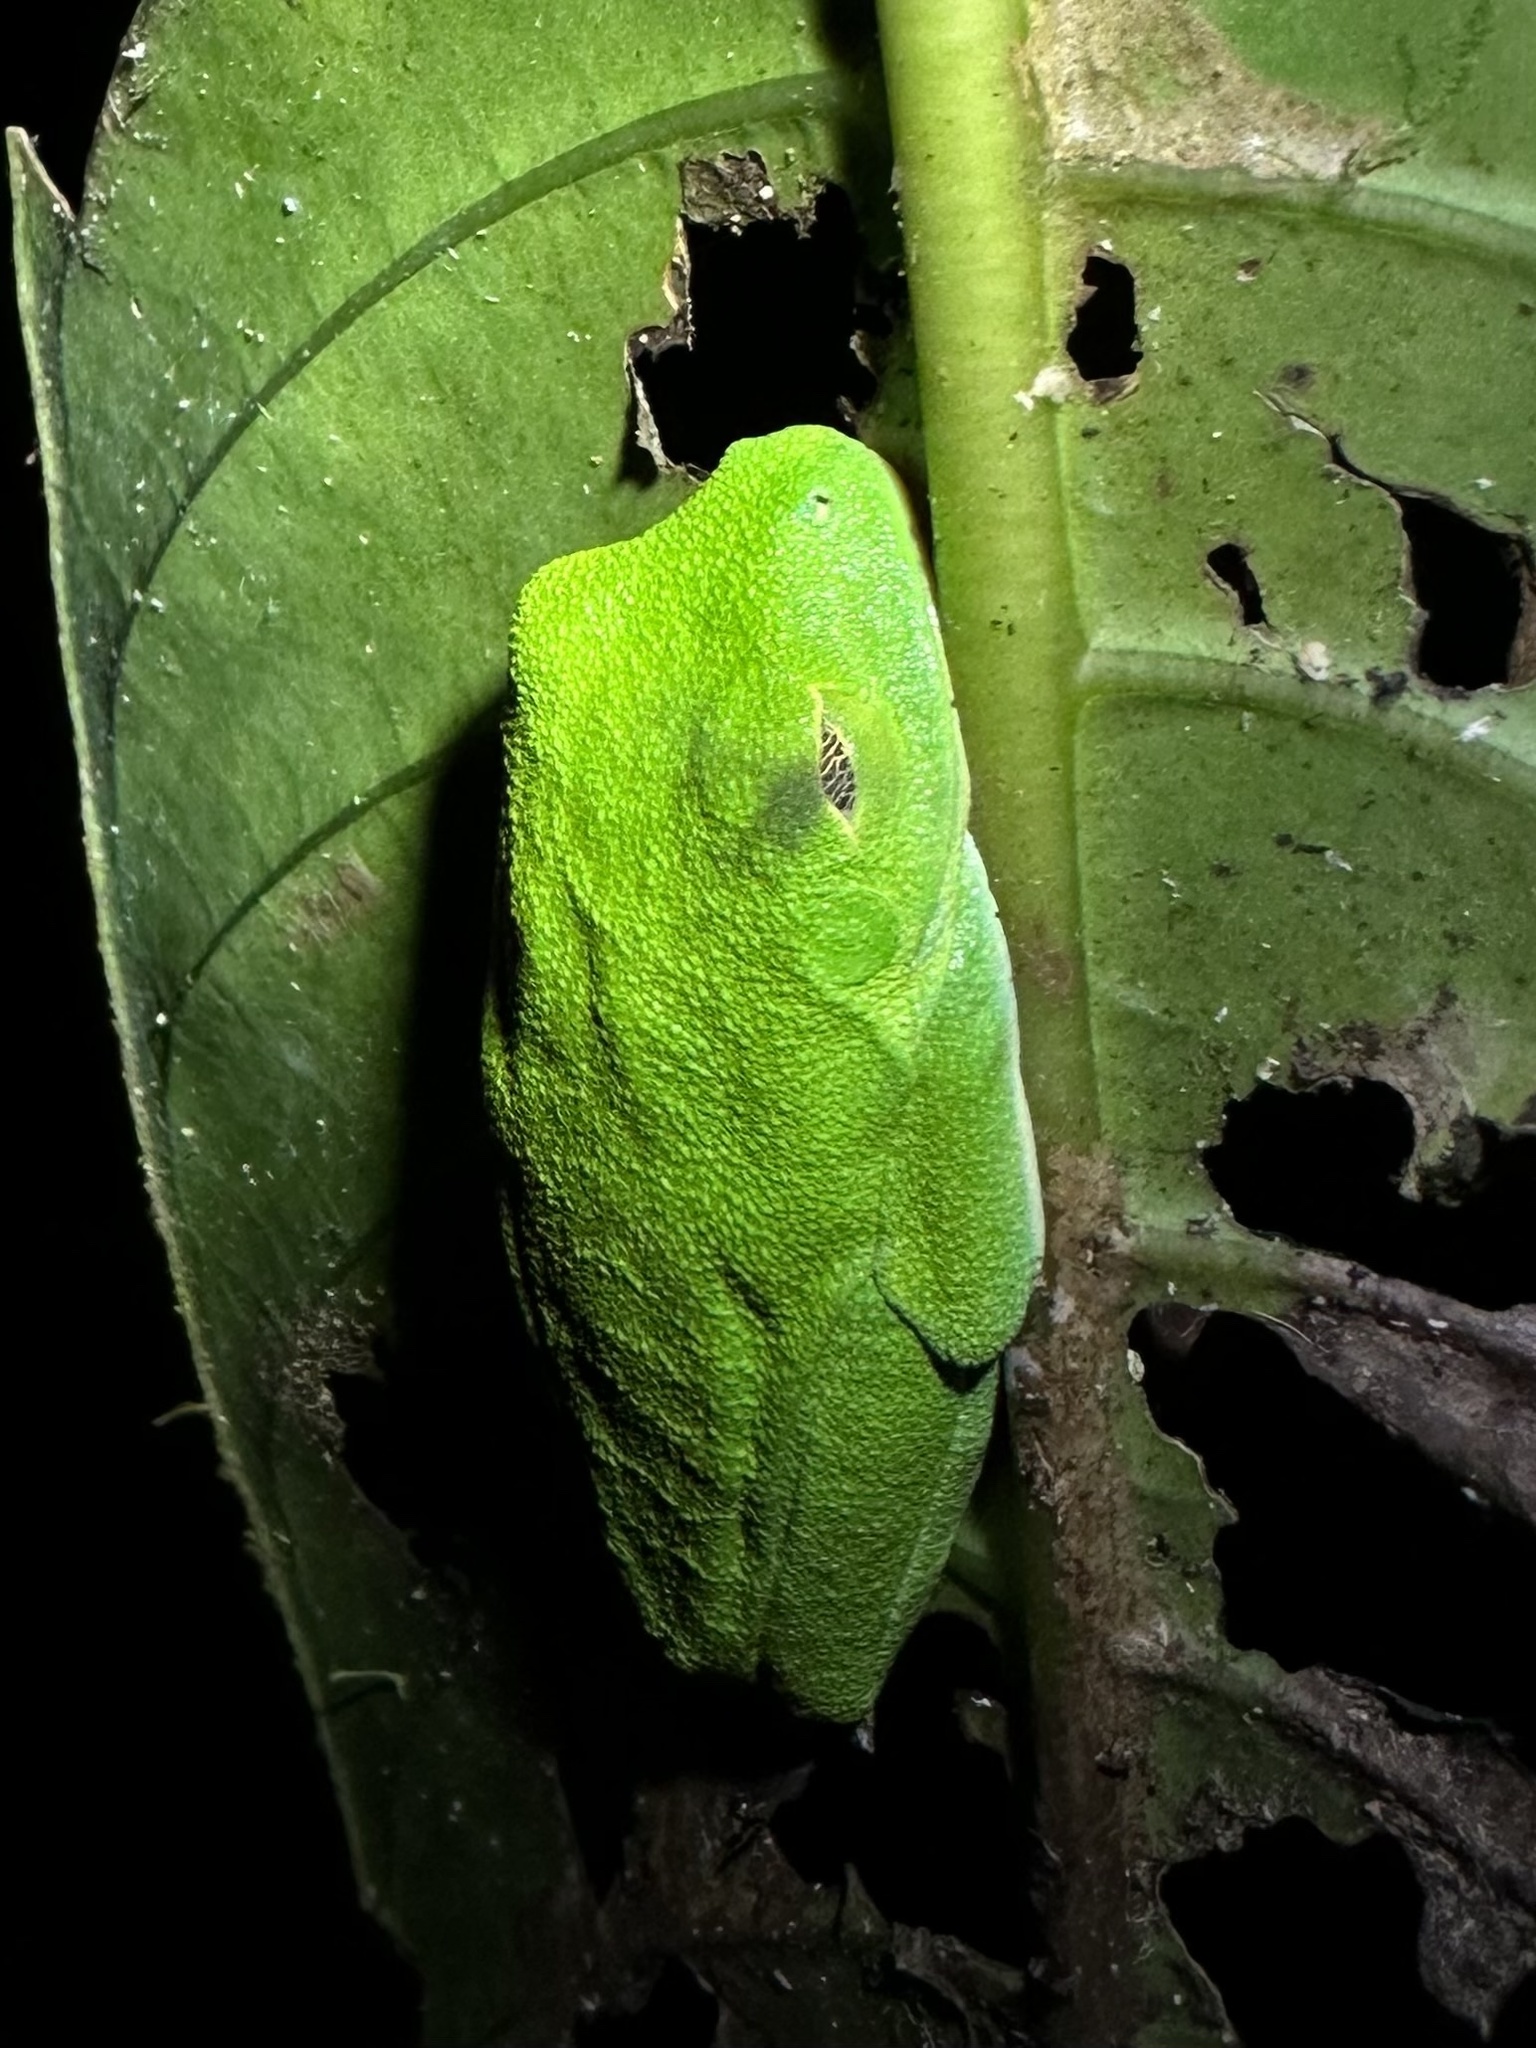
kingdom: Animalia
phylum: Chordata
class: Amphibia
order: Anura
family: Phyllomedusidae
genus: Agalychnis
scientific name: Agalychnis callidryas
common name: Red-eyed treefrog
